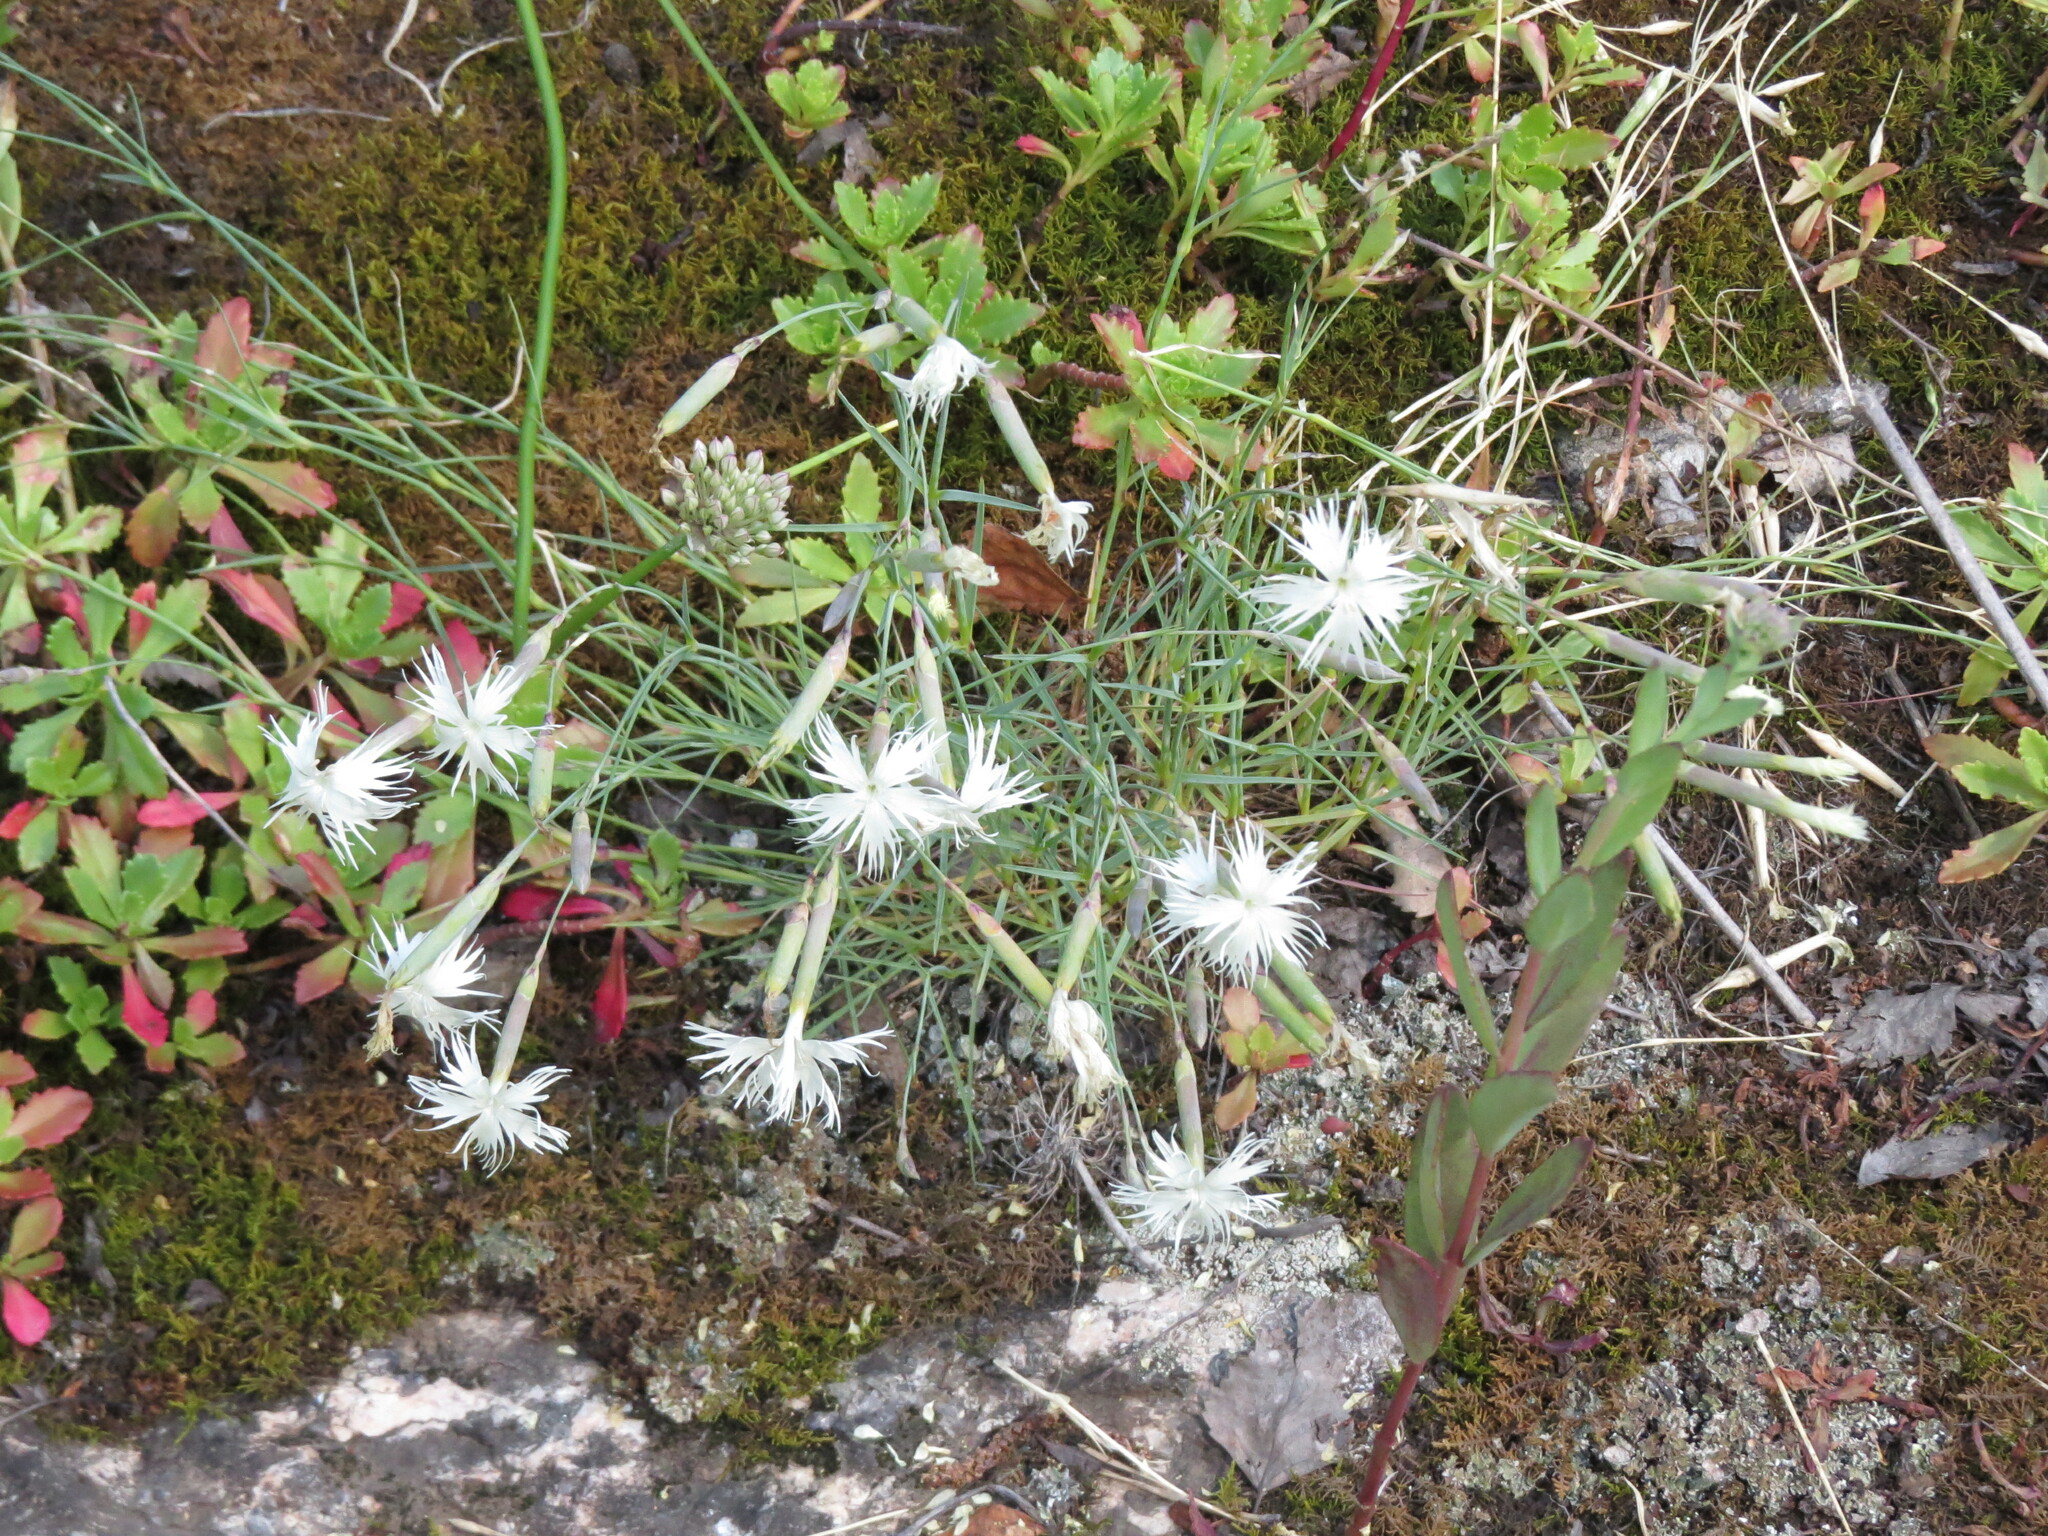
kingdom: Plantae
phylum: Tracheophyta
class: Magnoliopsida
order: Caryophyllales
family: Caryophyllaceae
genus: Dianthus
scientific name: Dianthus acicularis
